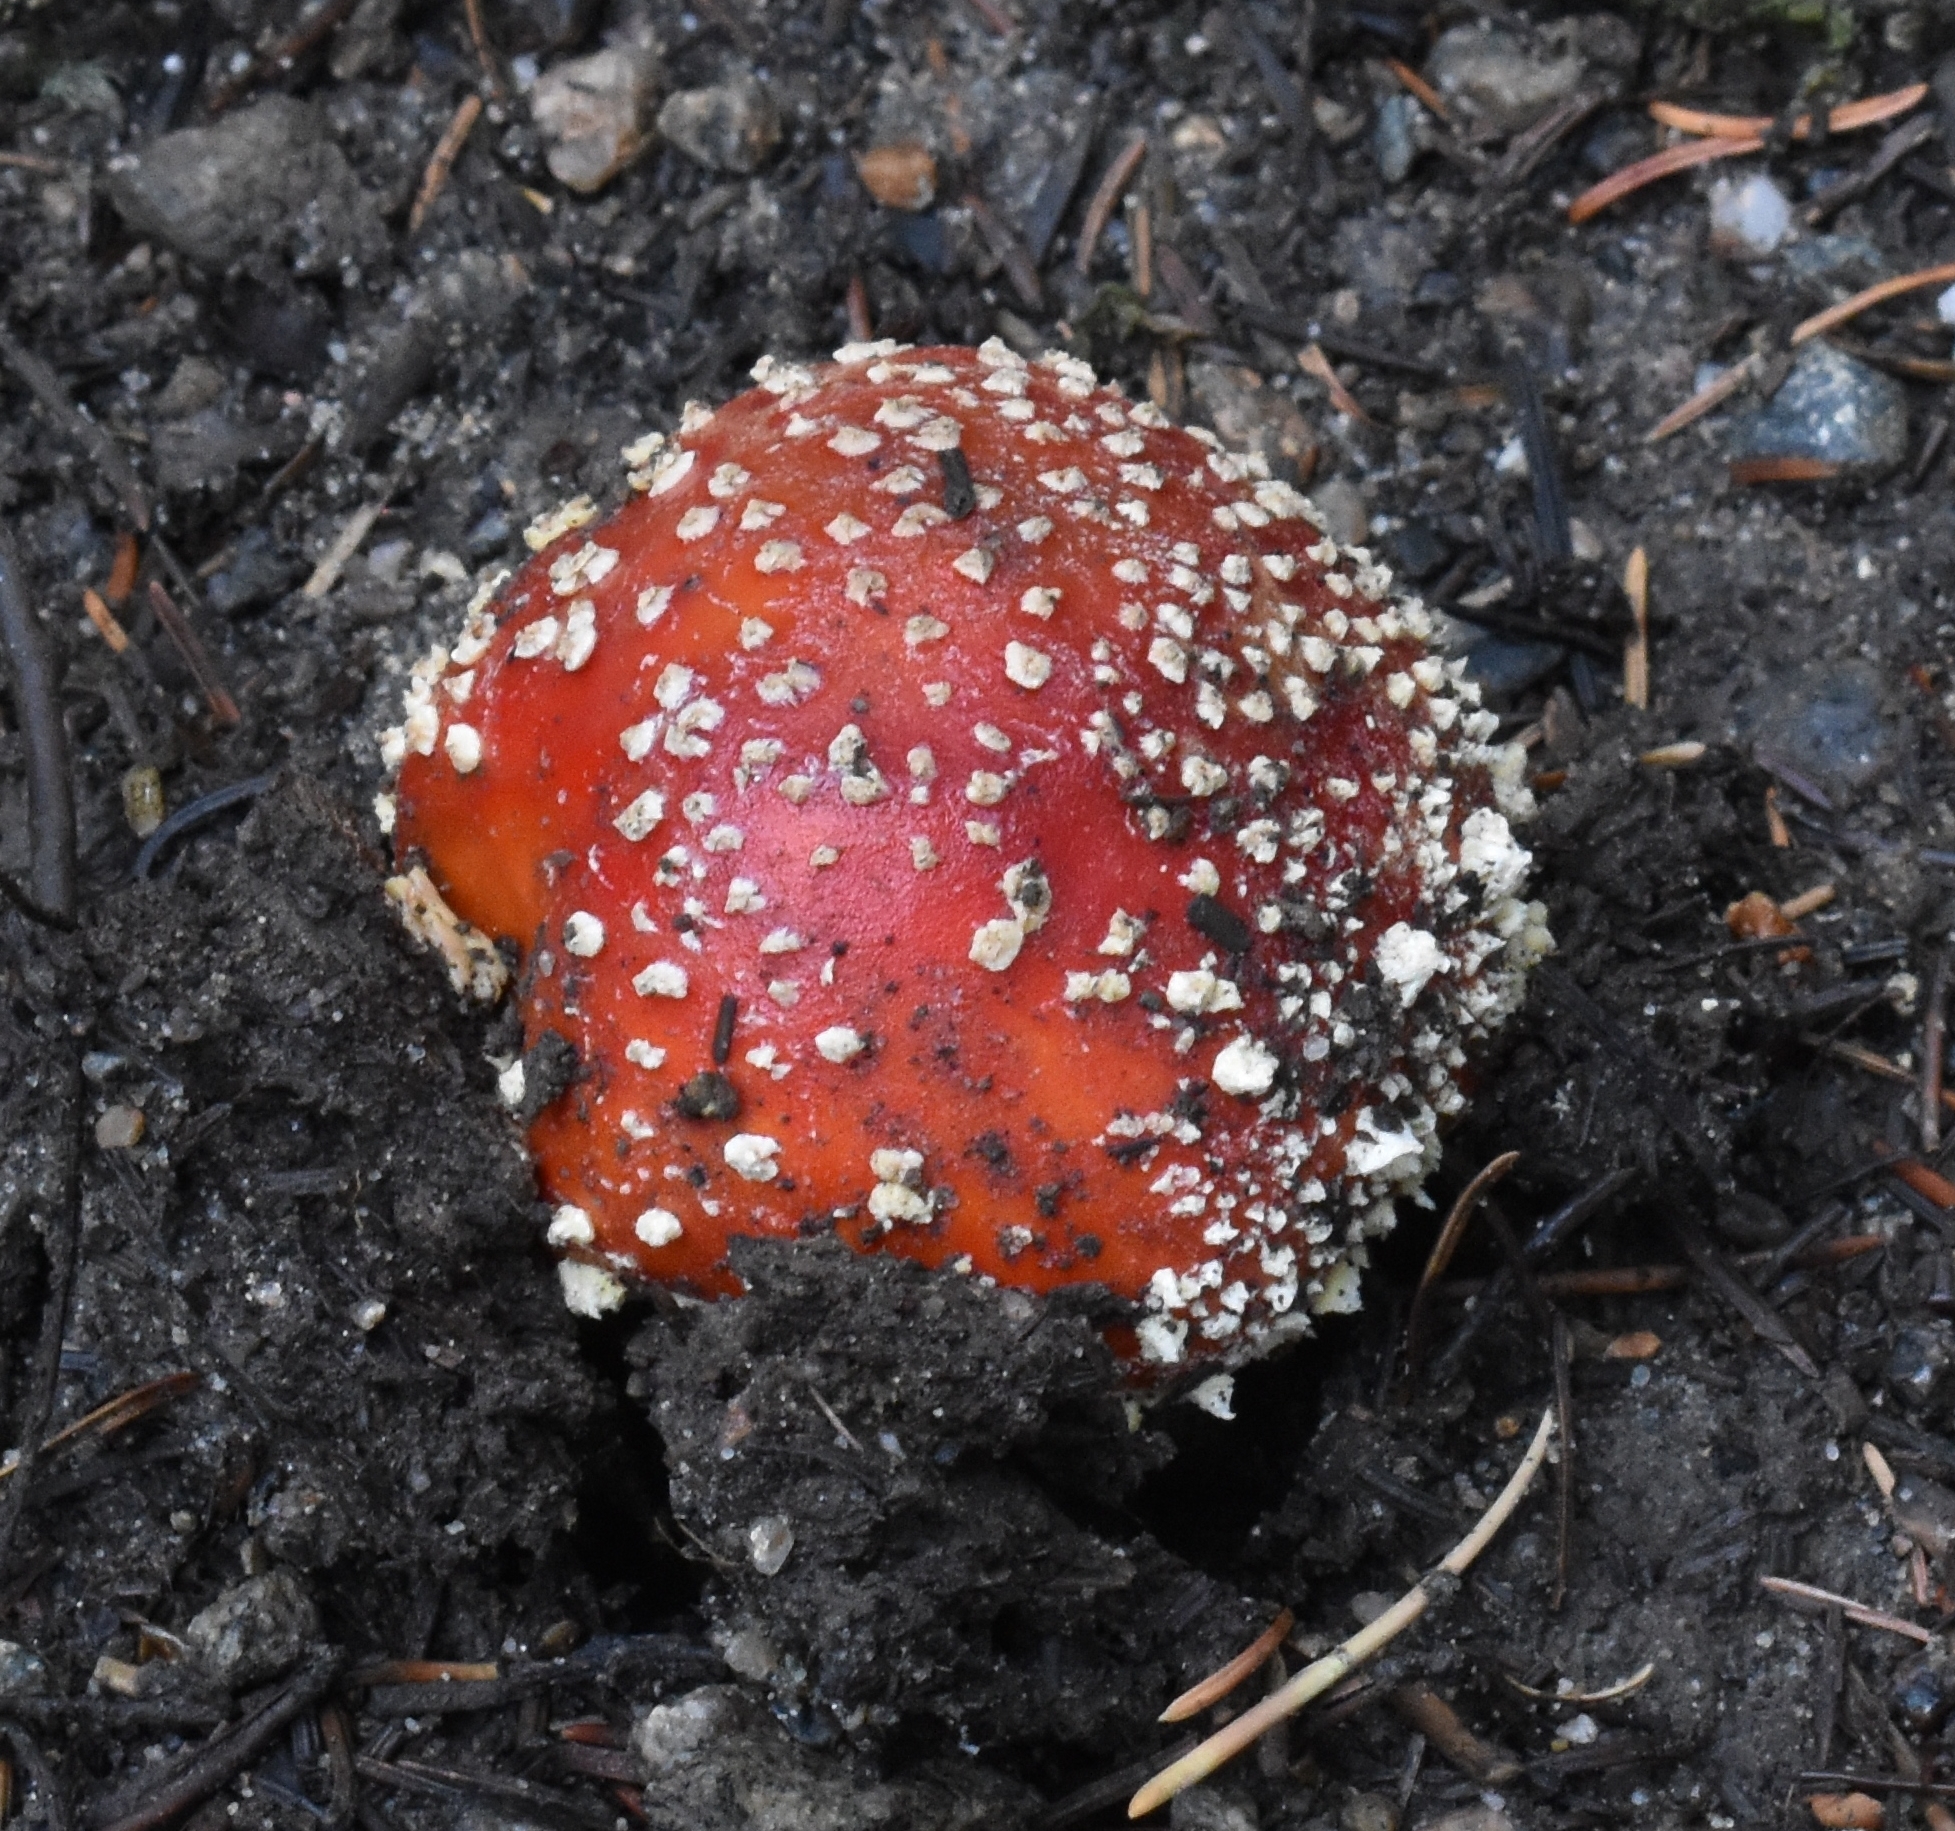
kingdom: Fungi
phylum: Basidiomycota
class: Agaricomycetes
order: Agaricales
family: Amanitaceae
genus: Amanita
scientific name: Amanita muscaria
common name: Fly agaric
